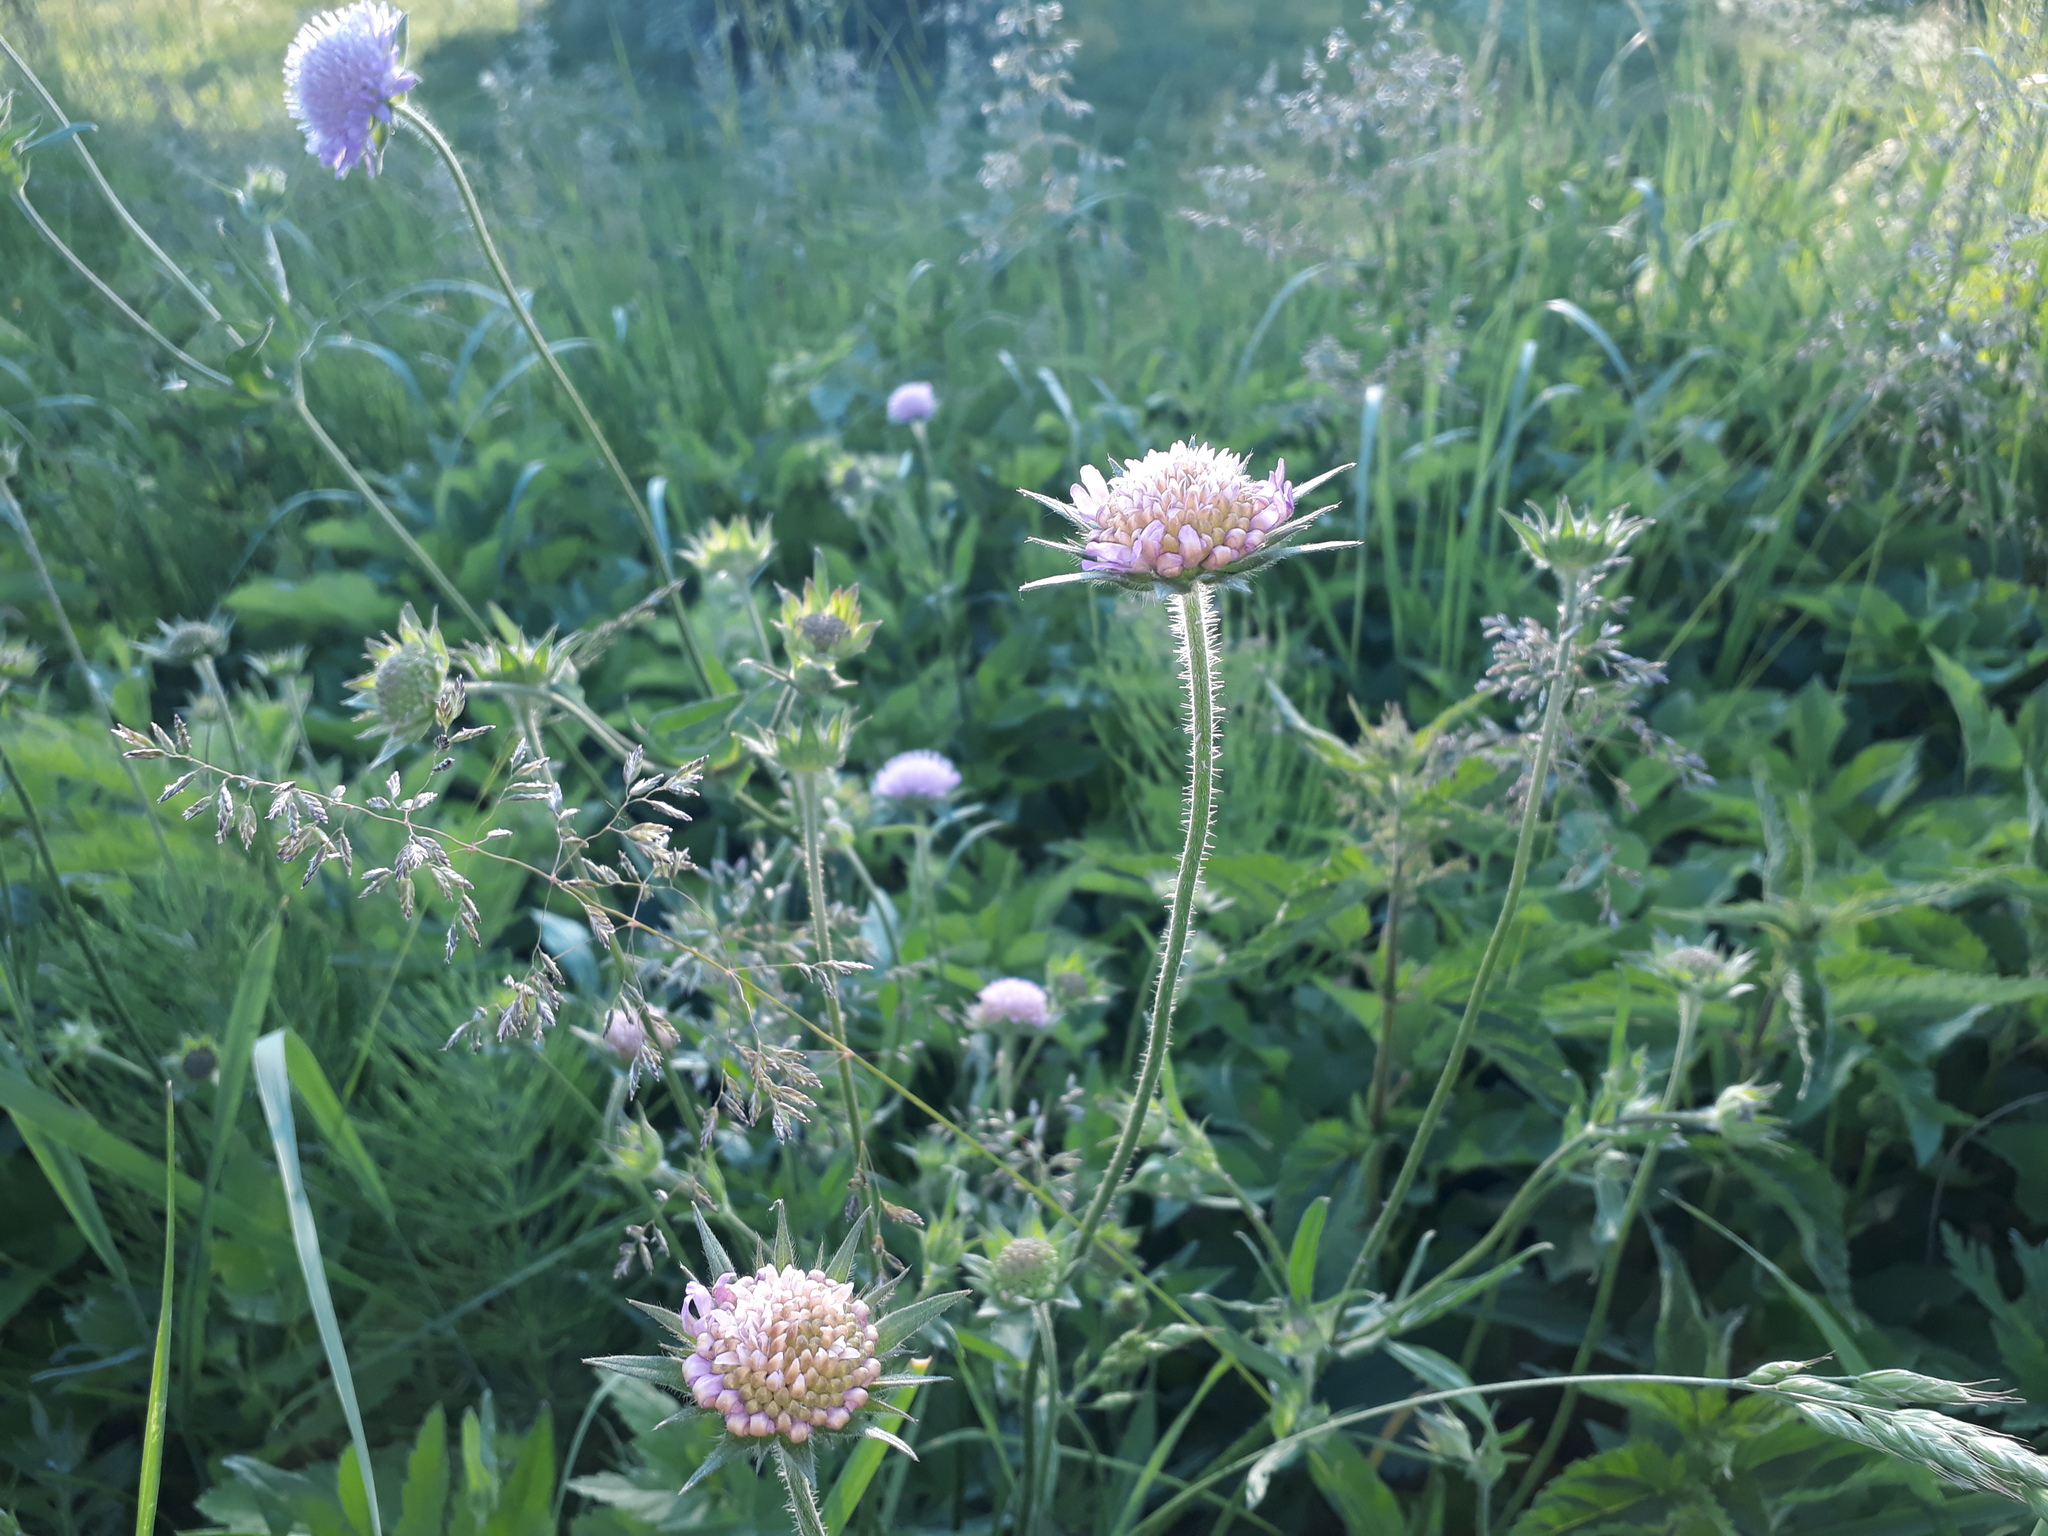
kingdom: Plantae
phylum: Tracheophyta
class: Magnoliopsida
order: Dipsacales
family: Caprifoliaceae
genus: Knautia
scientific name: Knautia arvensis
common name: Field scabiosa
